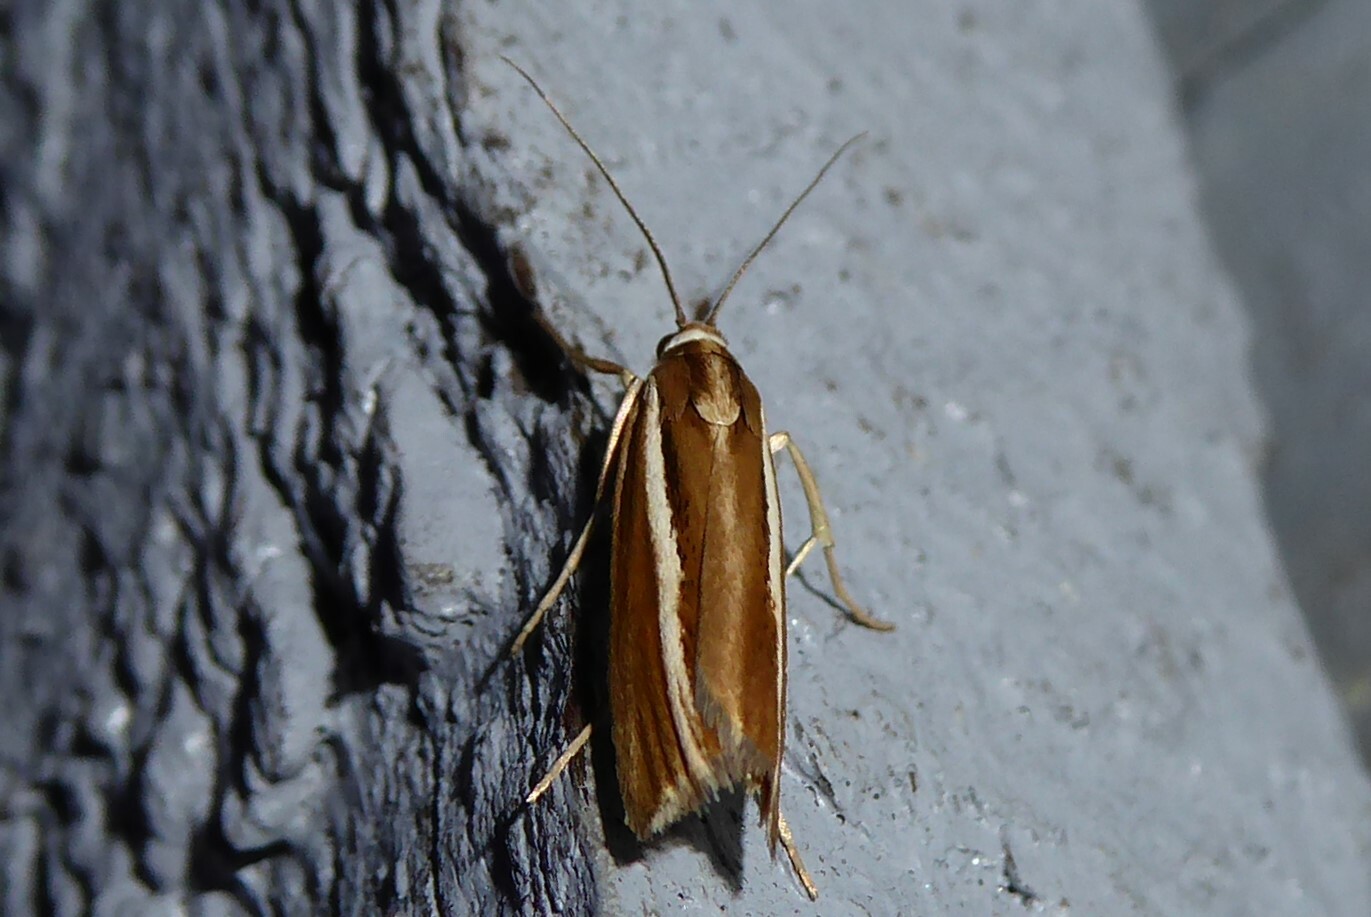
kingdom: Animalia
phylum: Arthropoda
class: Insecta
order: Lepidoptera
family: Crambidae
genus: Orocrambus
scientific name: Orocrambus melitastes
